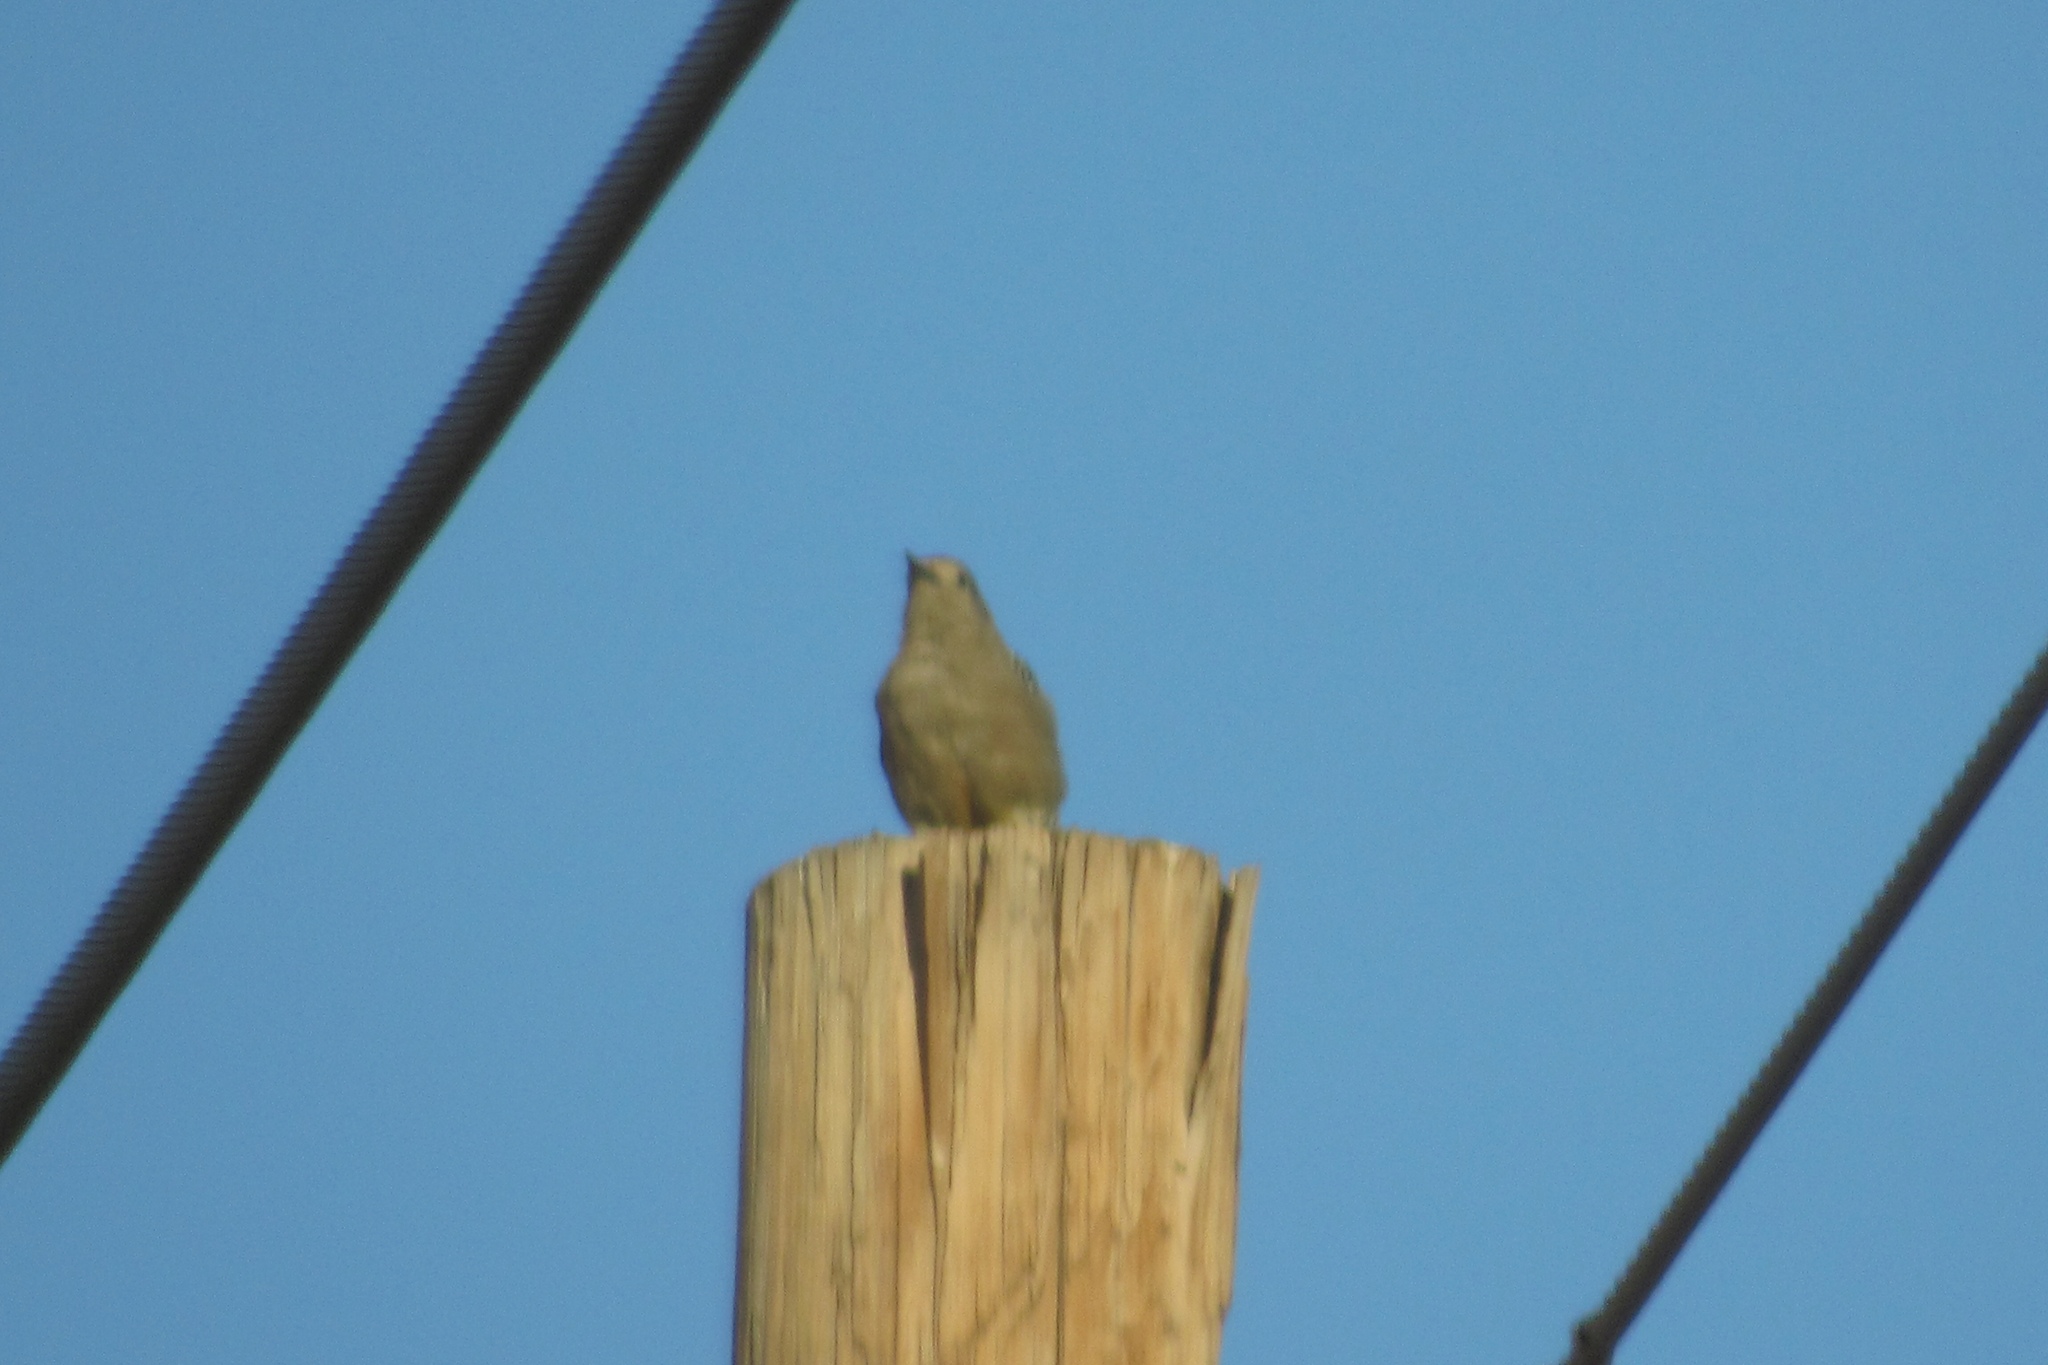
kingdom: Animalia
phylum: Chordata
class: Aves
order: Piciformes
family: Picidae
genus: Melanerpes
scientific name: Melanerpes uropygialis
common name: Gila woodpecker
